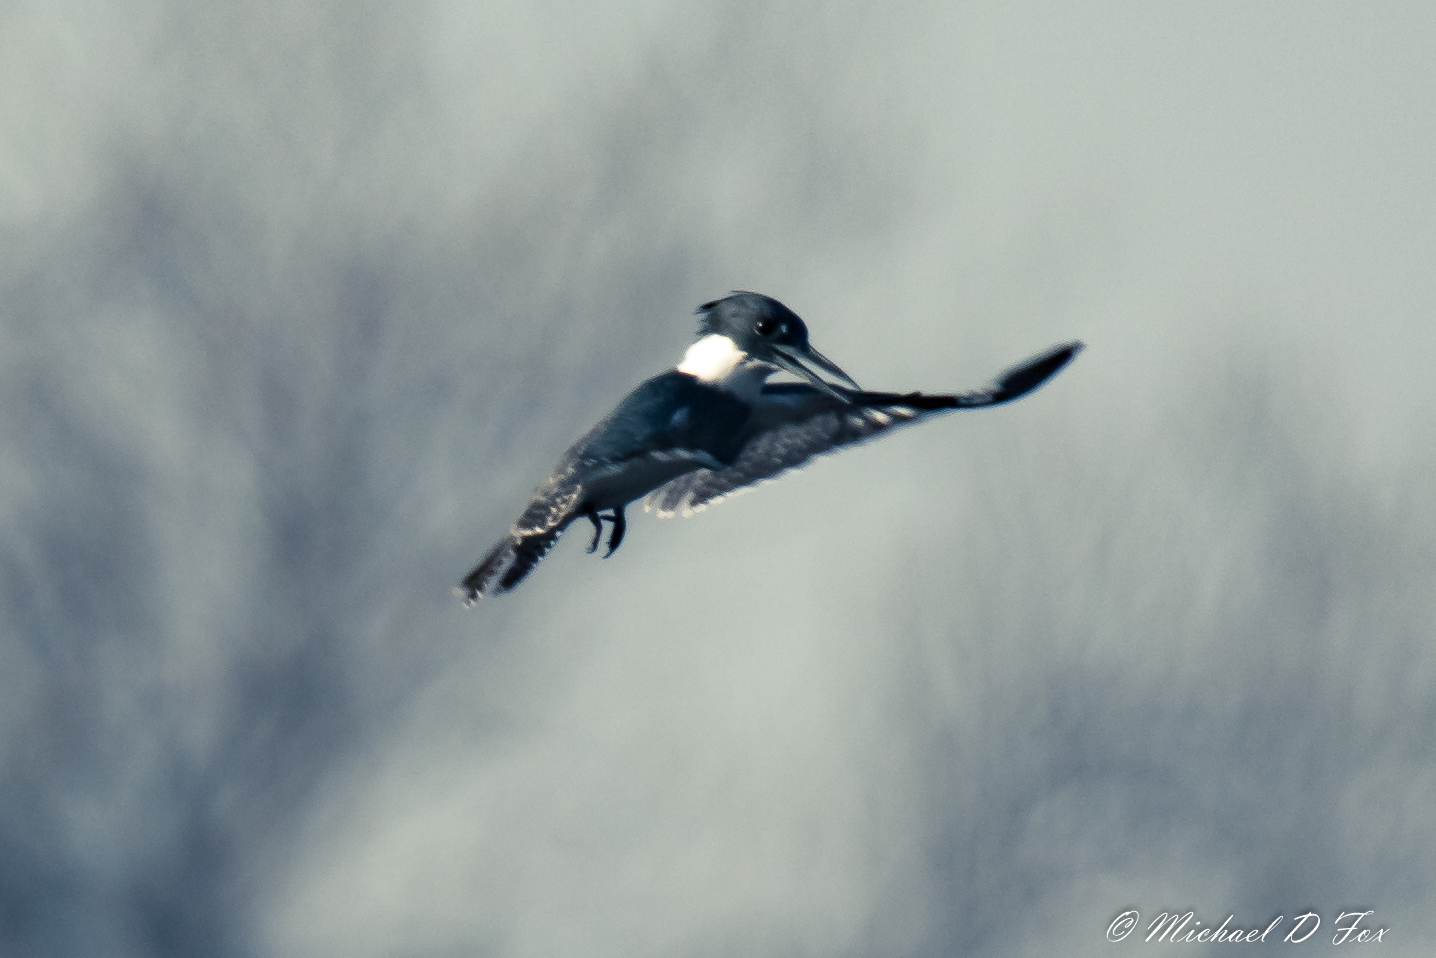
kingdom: Animalia
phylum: Chordata
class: Aves
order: Coraciiformes
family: Alcedinidae
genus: Megaceryle
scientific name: Megaceryle alcyon
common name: Belted kingfisher
